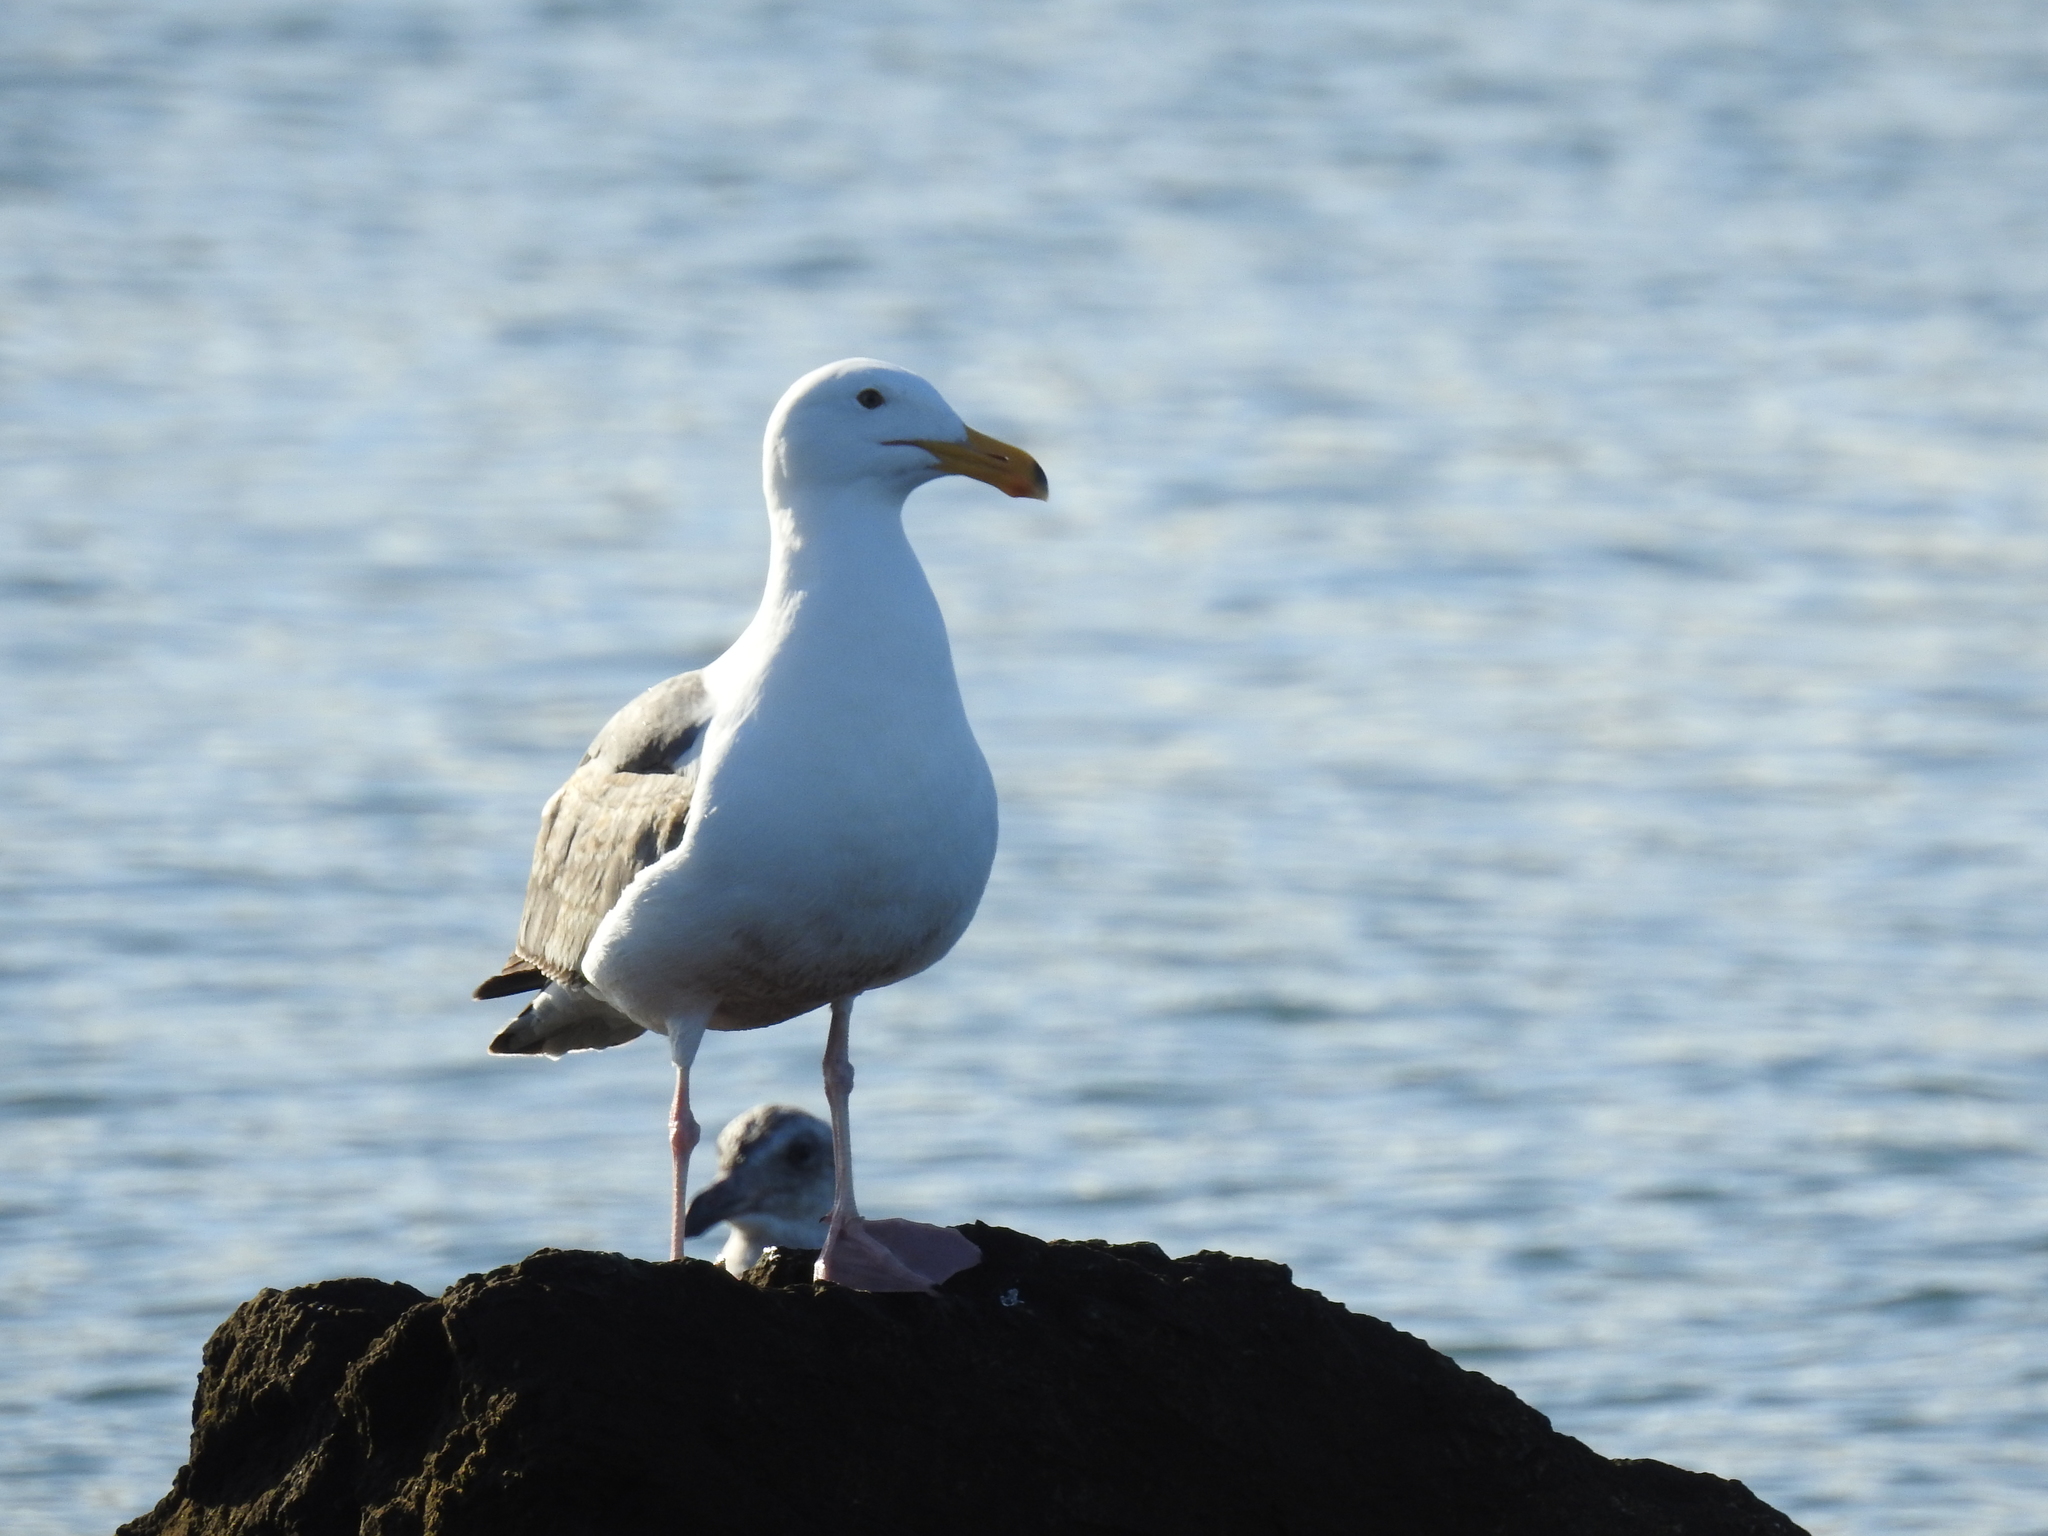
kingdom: Animalia
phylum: Chordata
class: Aves
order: Charadriiformes
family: Laridae
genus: Larus
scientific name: Larus occidentalis
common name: Western gull
